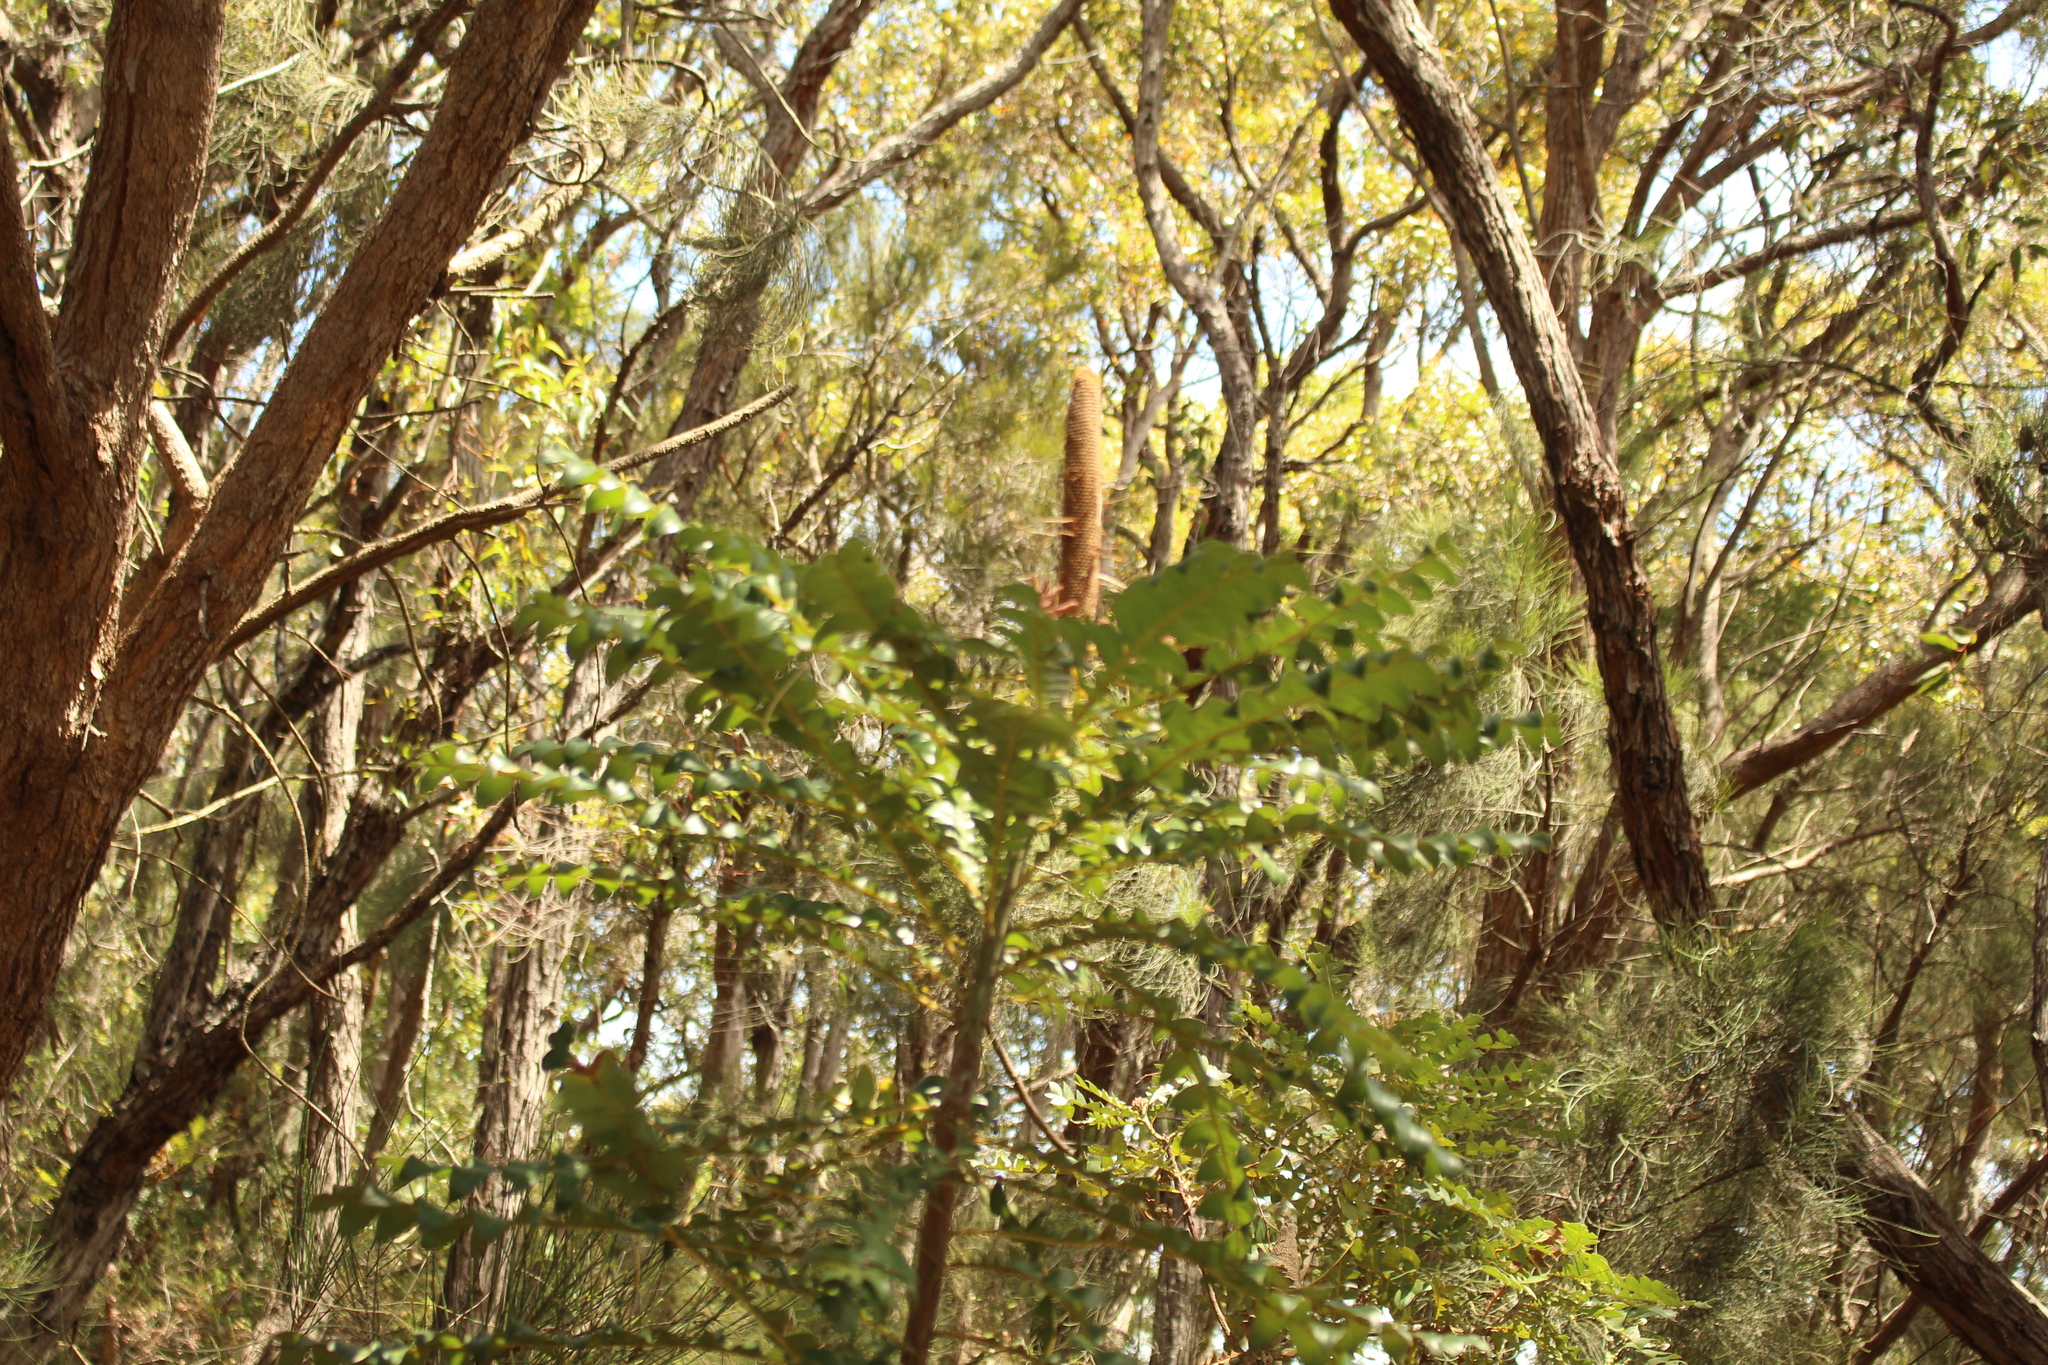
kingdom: Plantae
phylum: Tracheophyta
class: Magnoliopsida
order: Proteales
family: Proteaceae
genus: Banksia
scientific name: Banksia grandis
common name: Giant banksia
